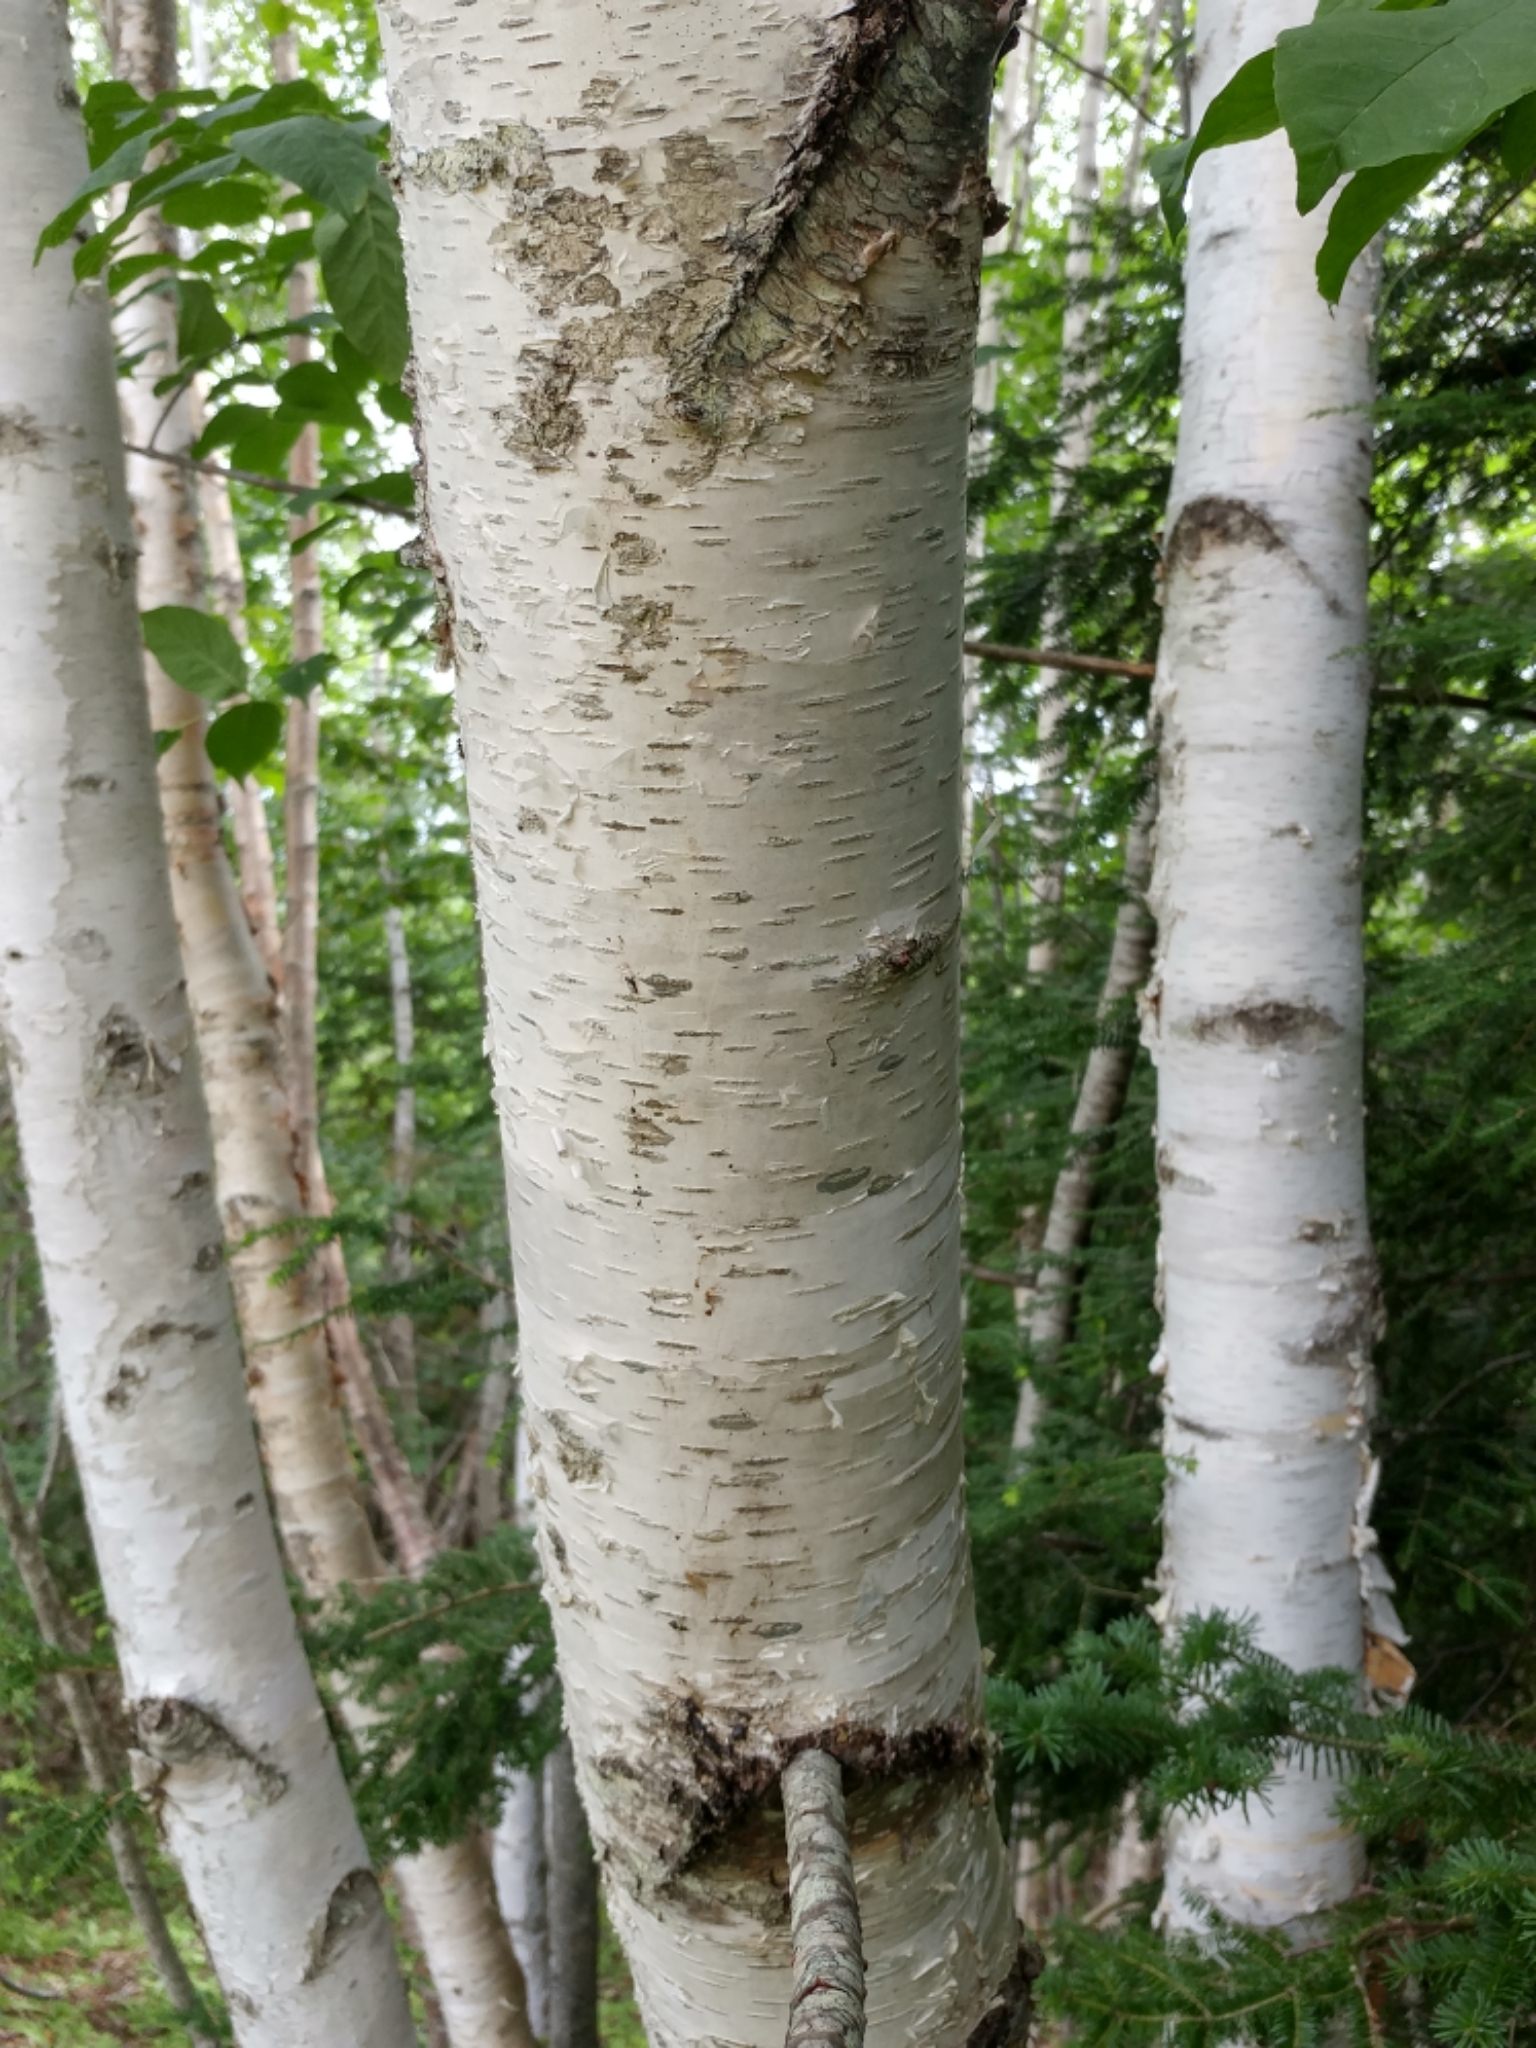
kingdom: Plantae
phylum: Tracheophyta
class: Magnoliopsida
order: Fagales
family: Betulaceae
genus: Betula
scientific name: Betula papyrifera
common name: Paper birch
